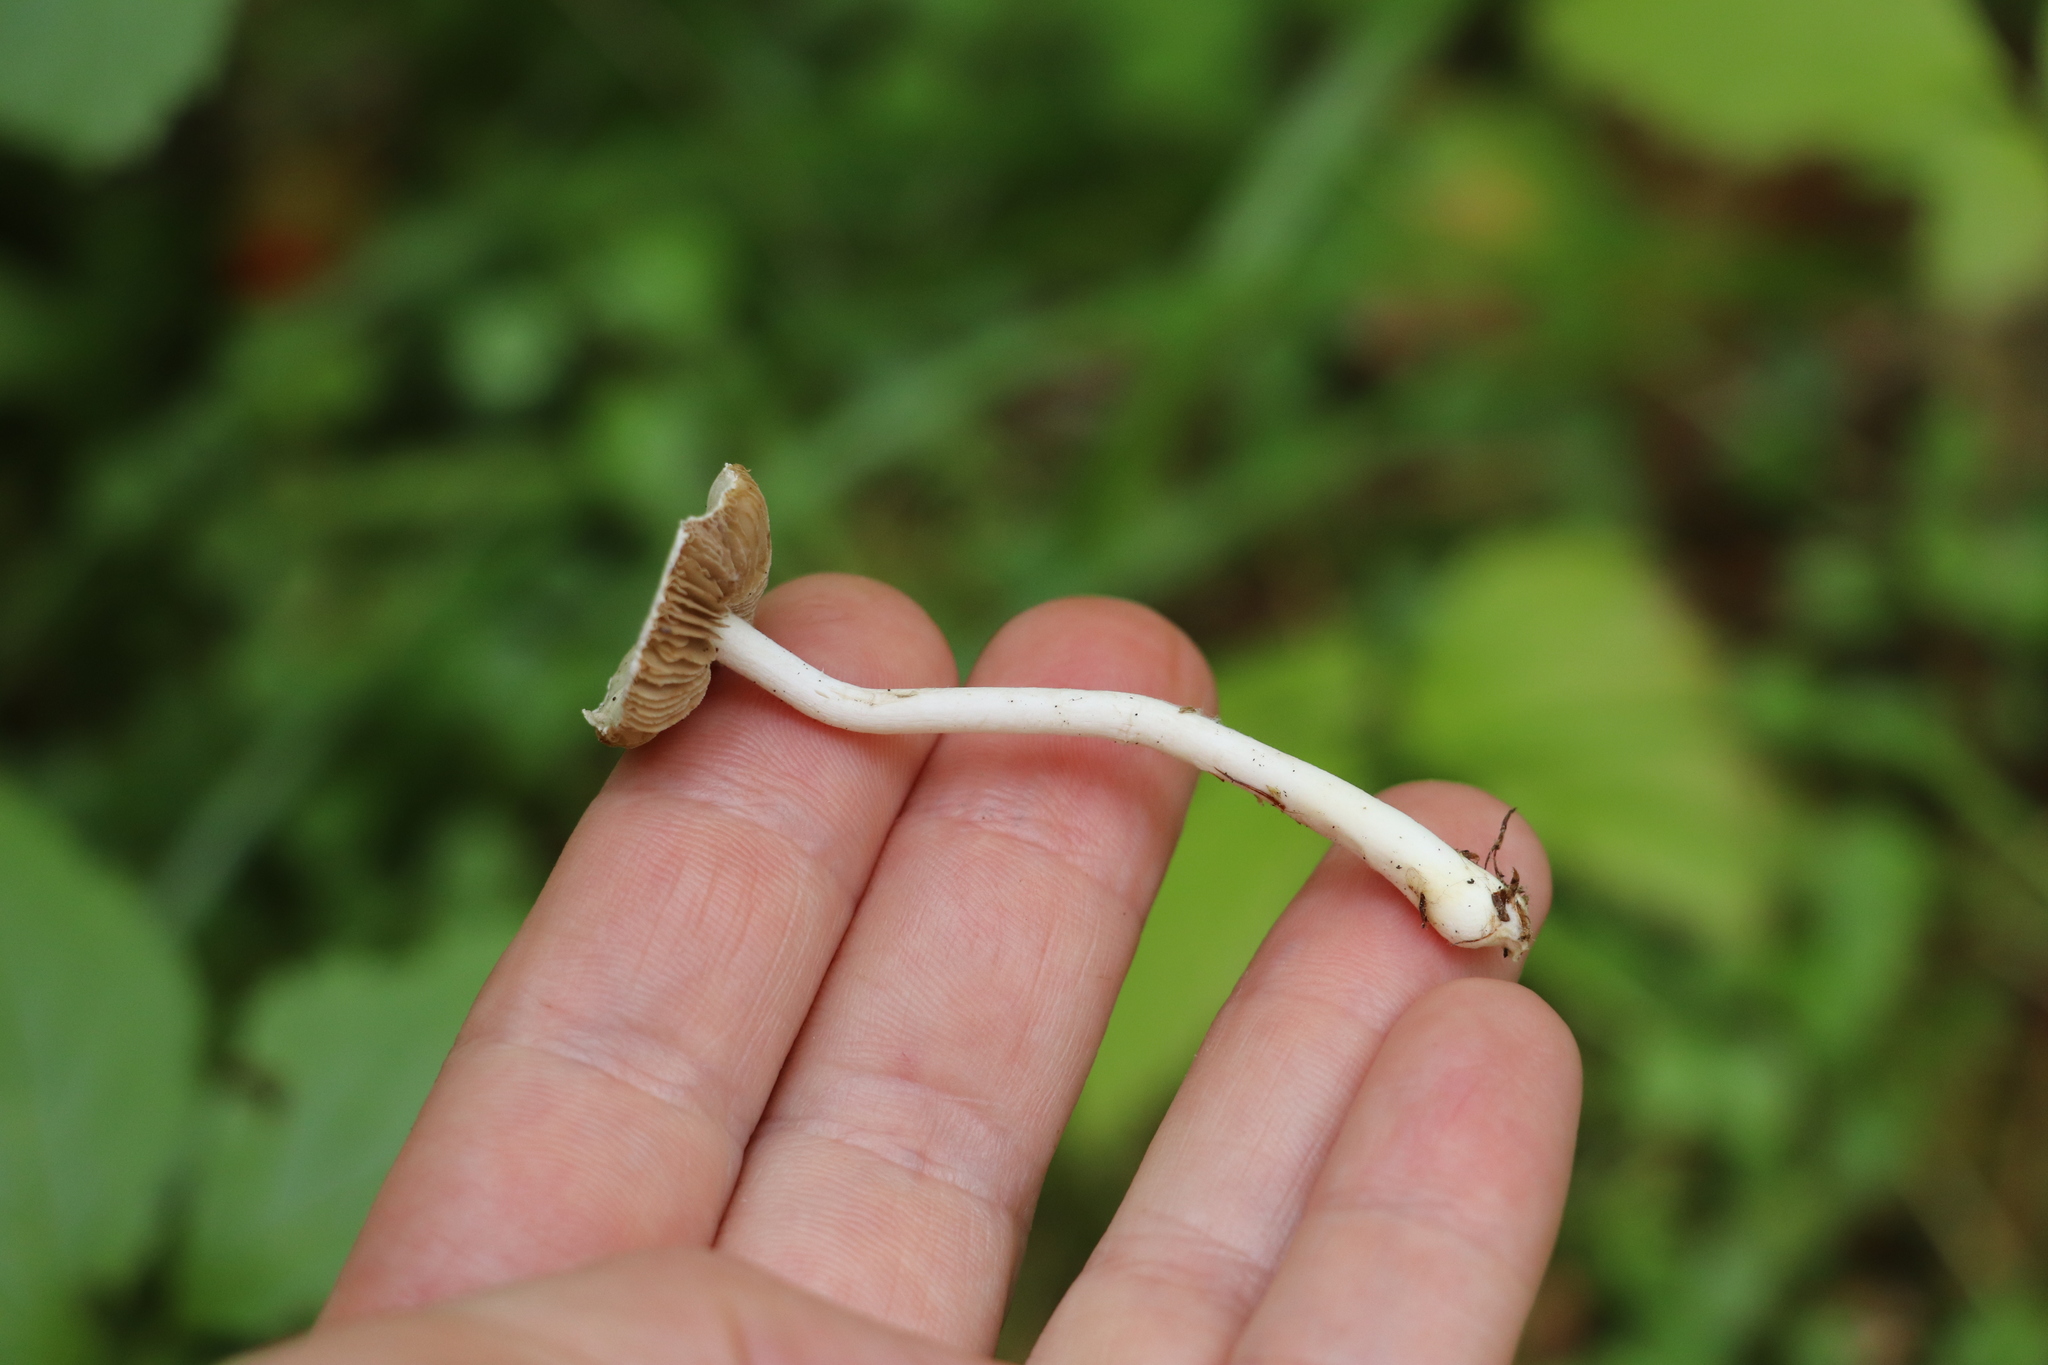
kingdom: Fungi
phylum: Basidiomycota
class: Agaricomycetes
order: Agaricales
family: Inocybaceae
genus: Inocybe
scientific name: Inocybe geophylla
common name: White fibrecap
